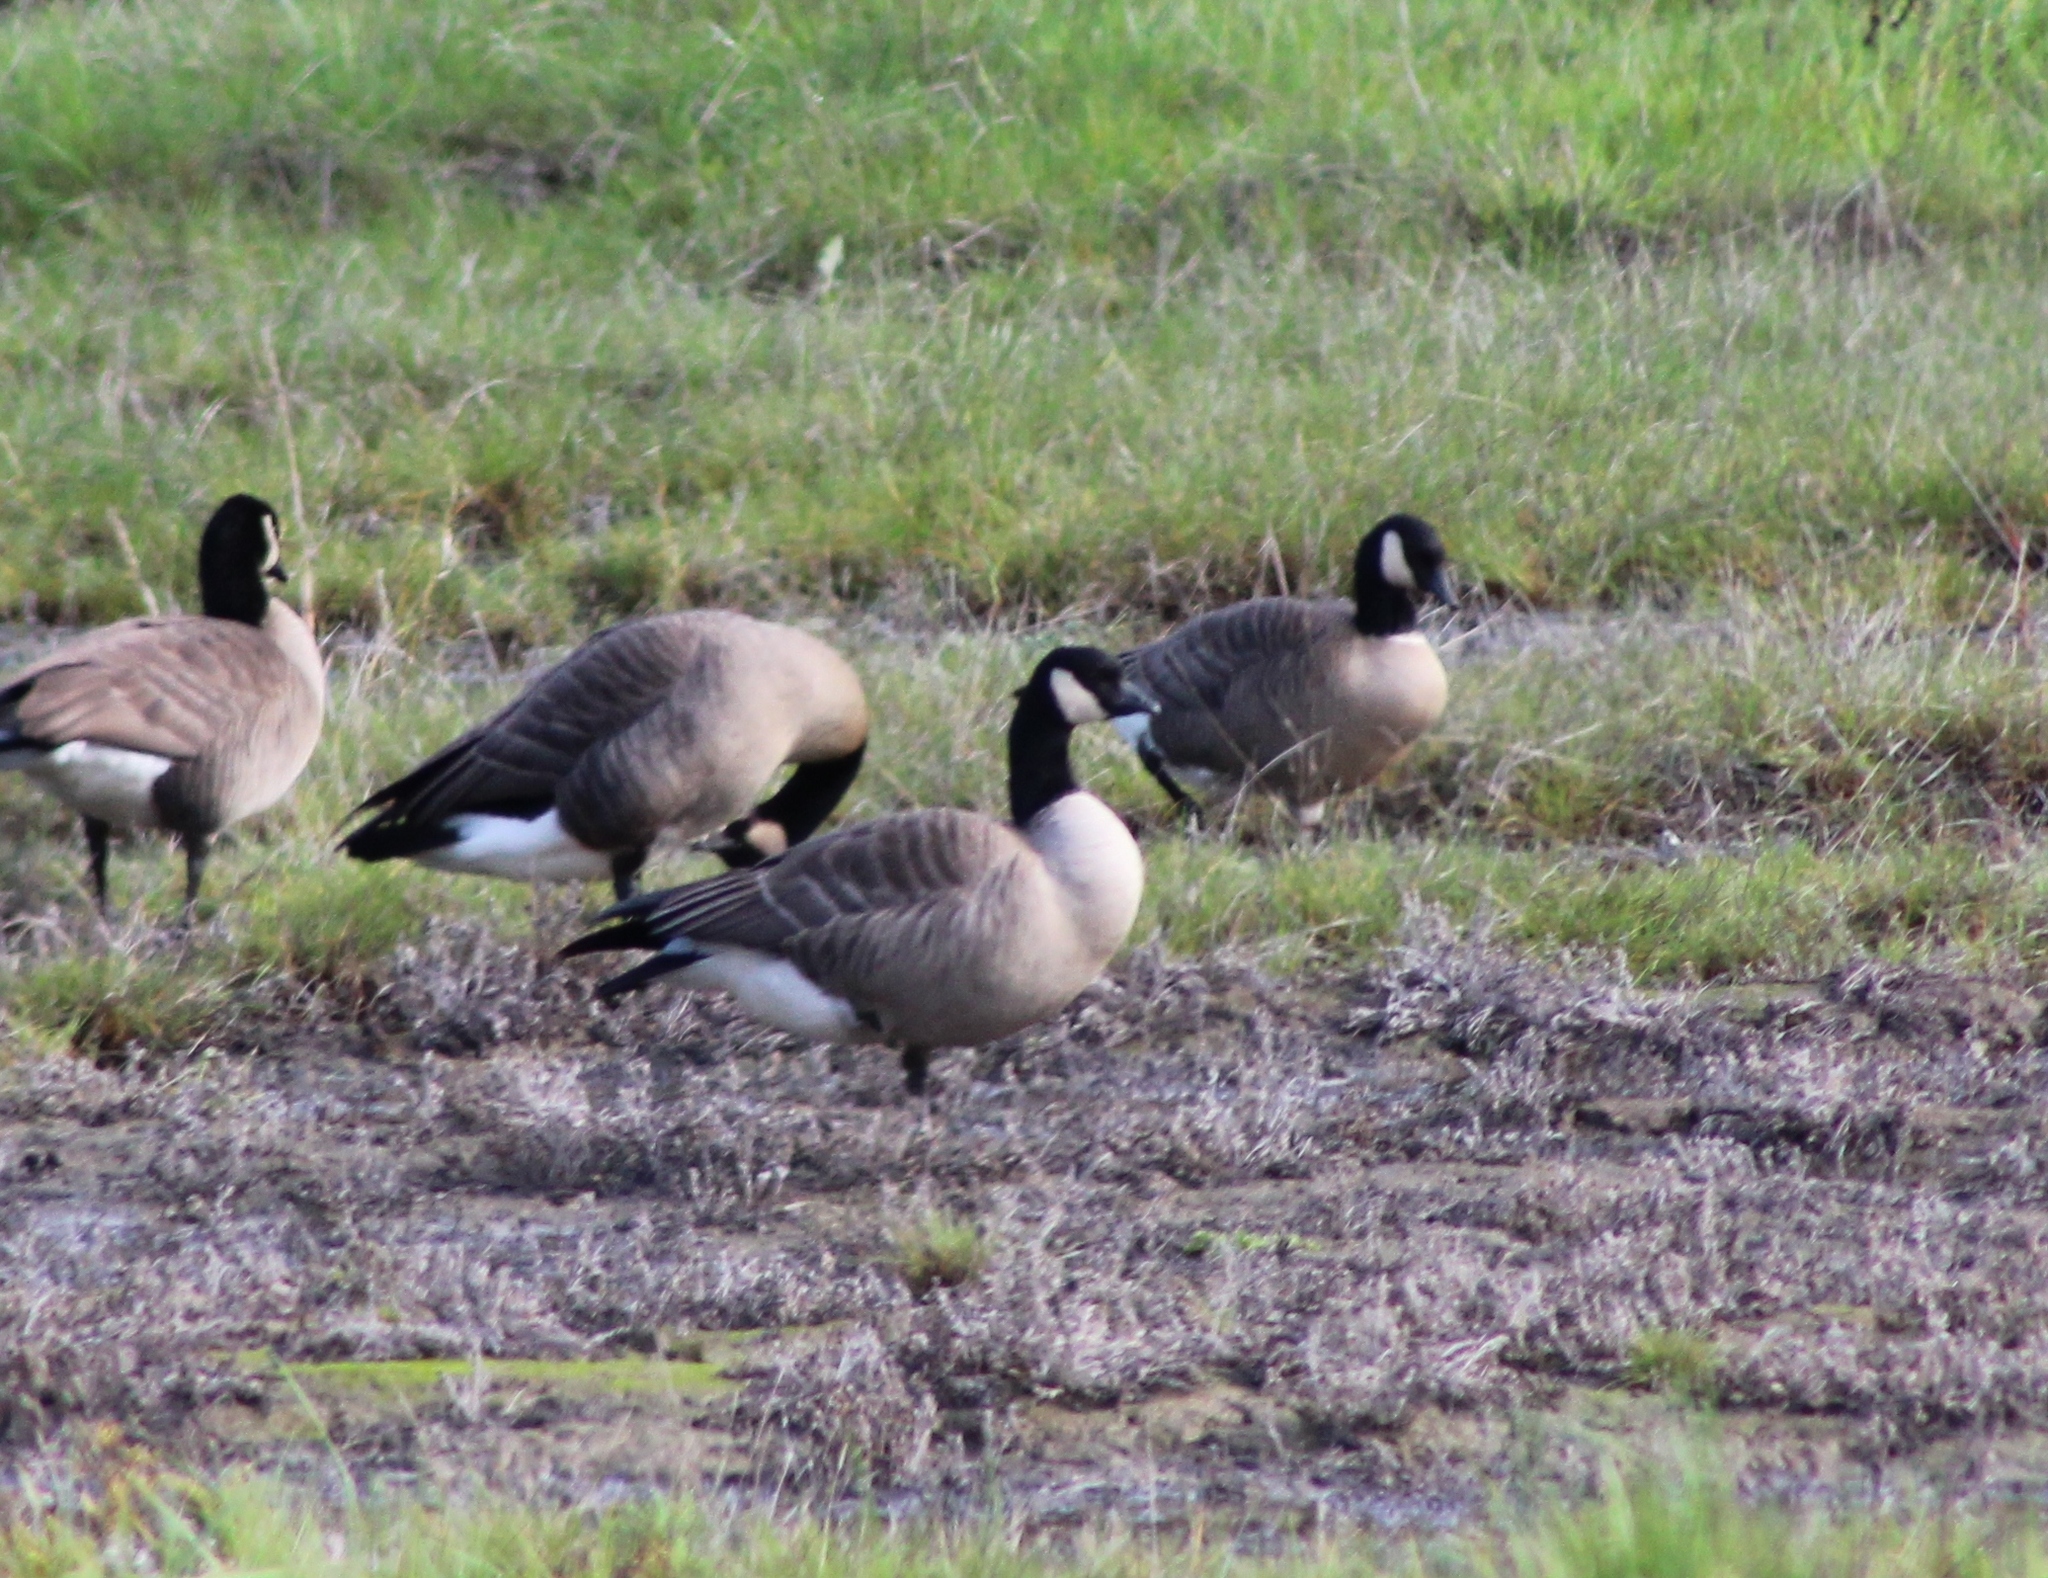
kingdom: Animalia
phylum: Chordata
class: Aves
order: Anseriformes
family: Anatidae
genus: Branta
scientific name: Branta hutchinsii
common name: Cackling goose
